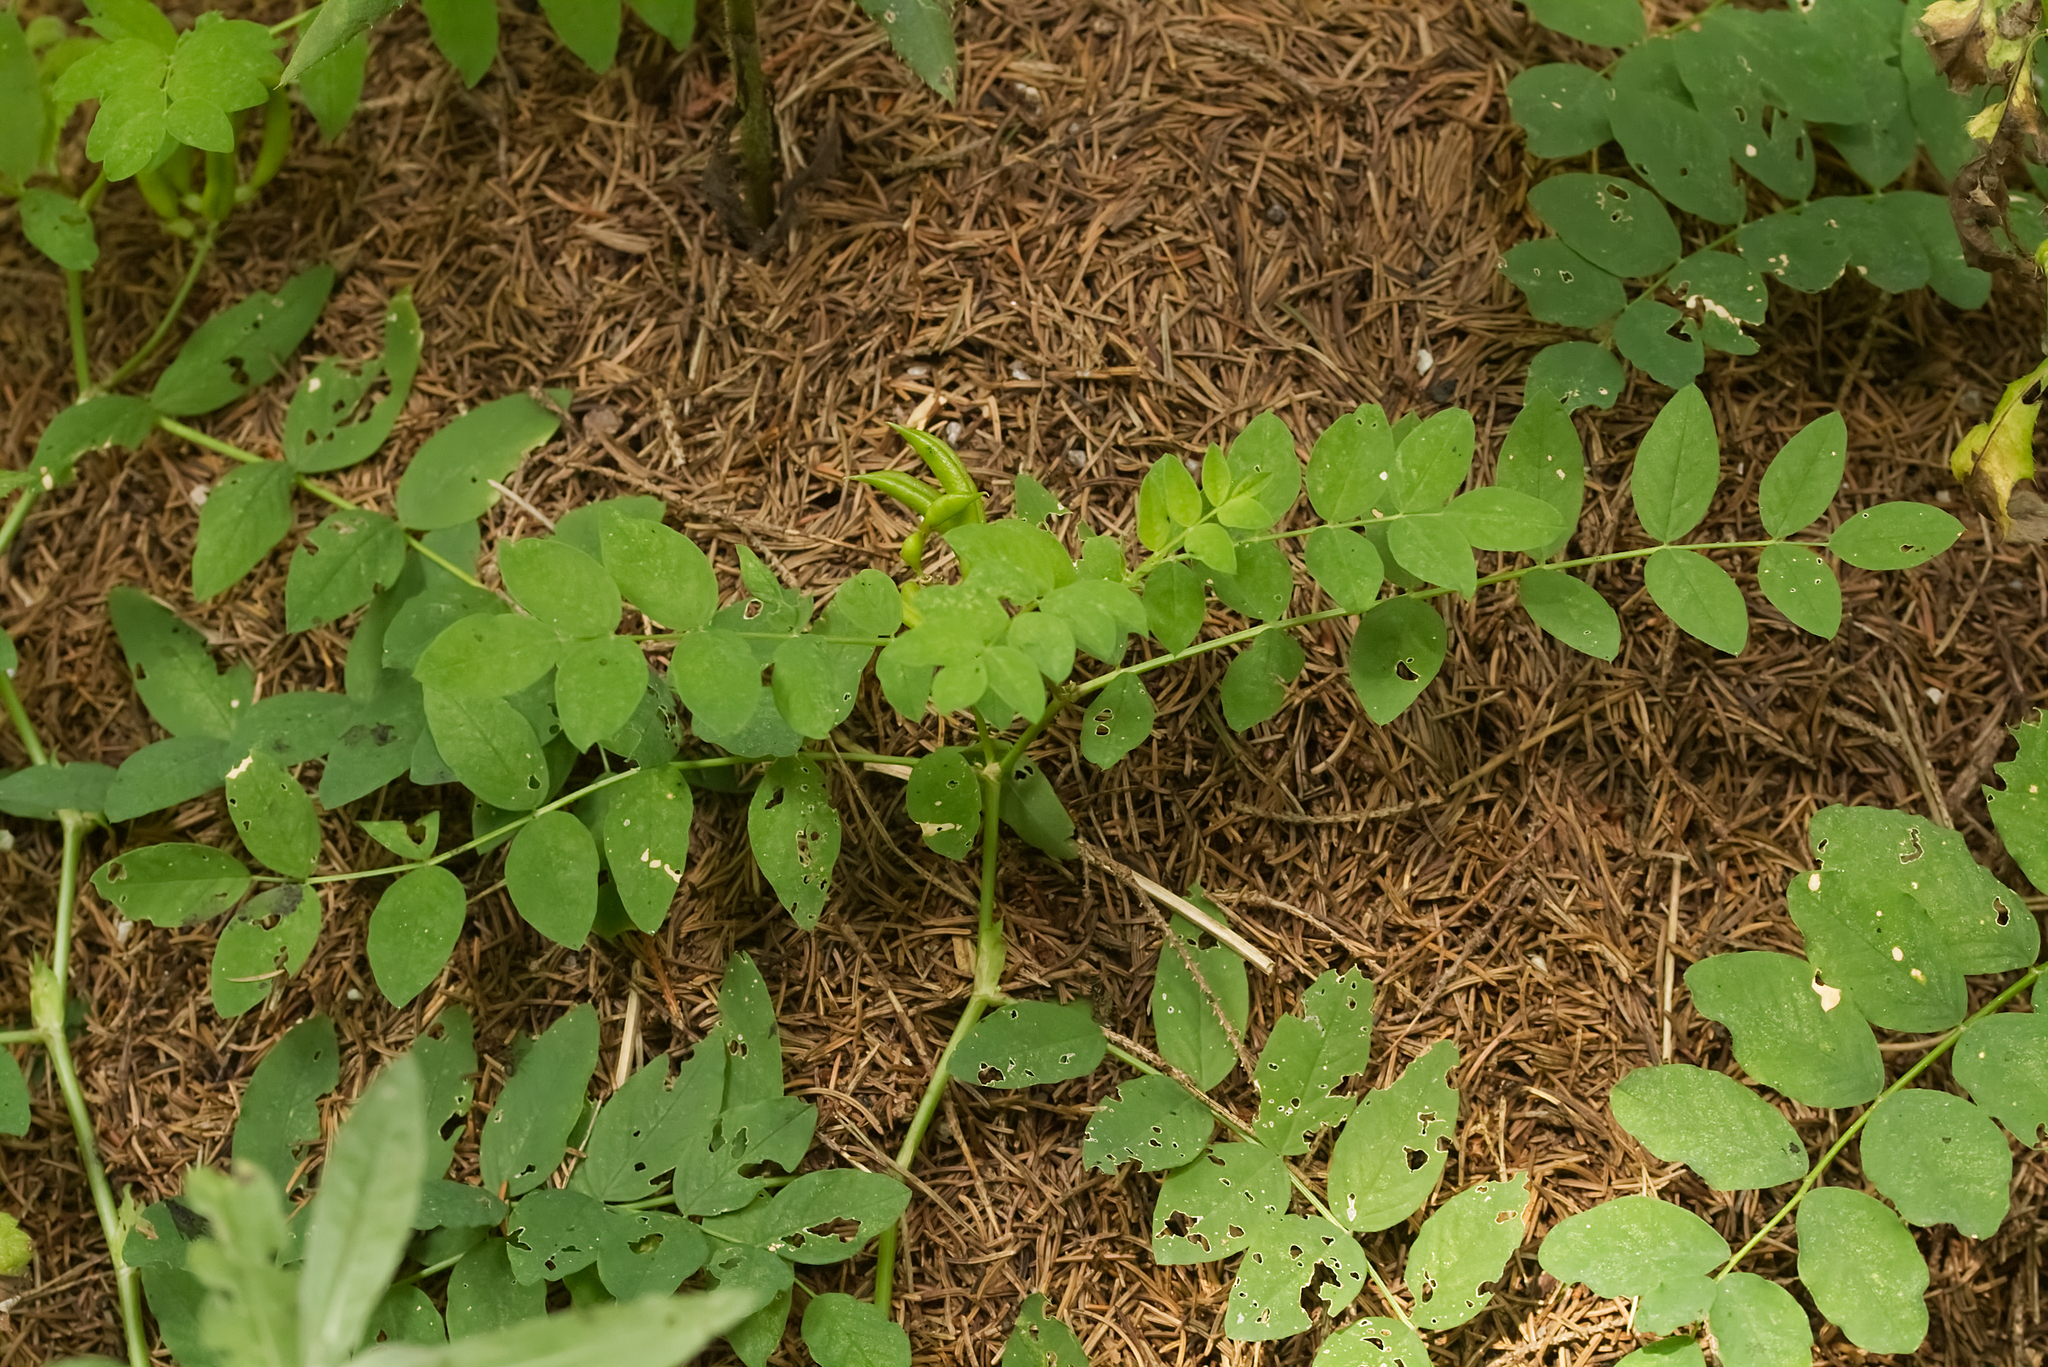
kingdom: Plantae
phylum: Tracheophyta
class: Magnoliopsida
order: Fabales
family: Fabaceae
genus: Astragalus
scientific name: Astragalus glycyphyllos
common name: Wild liquorice
